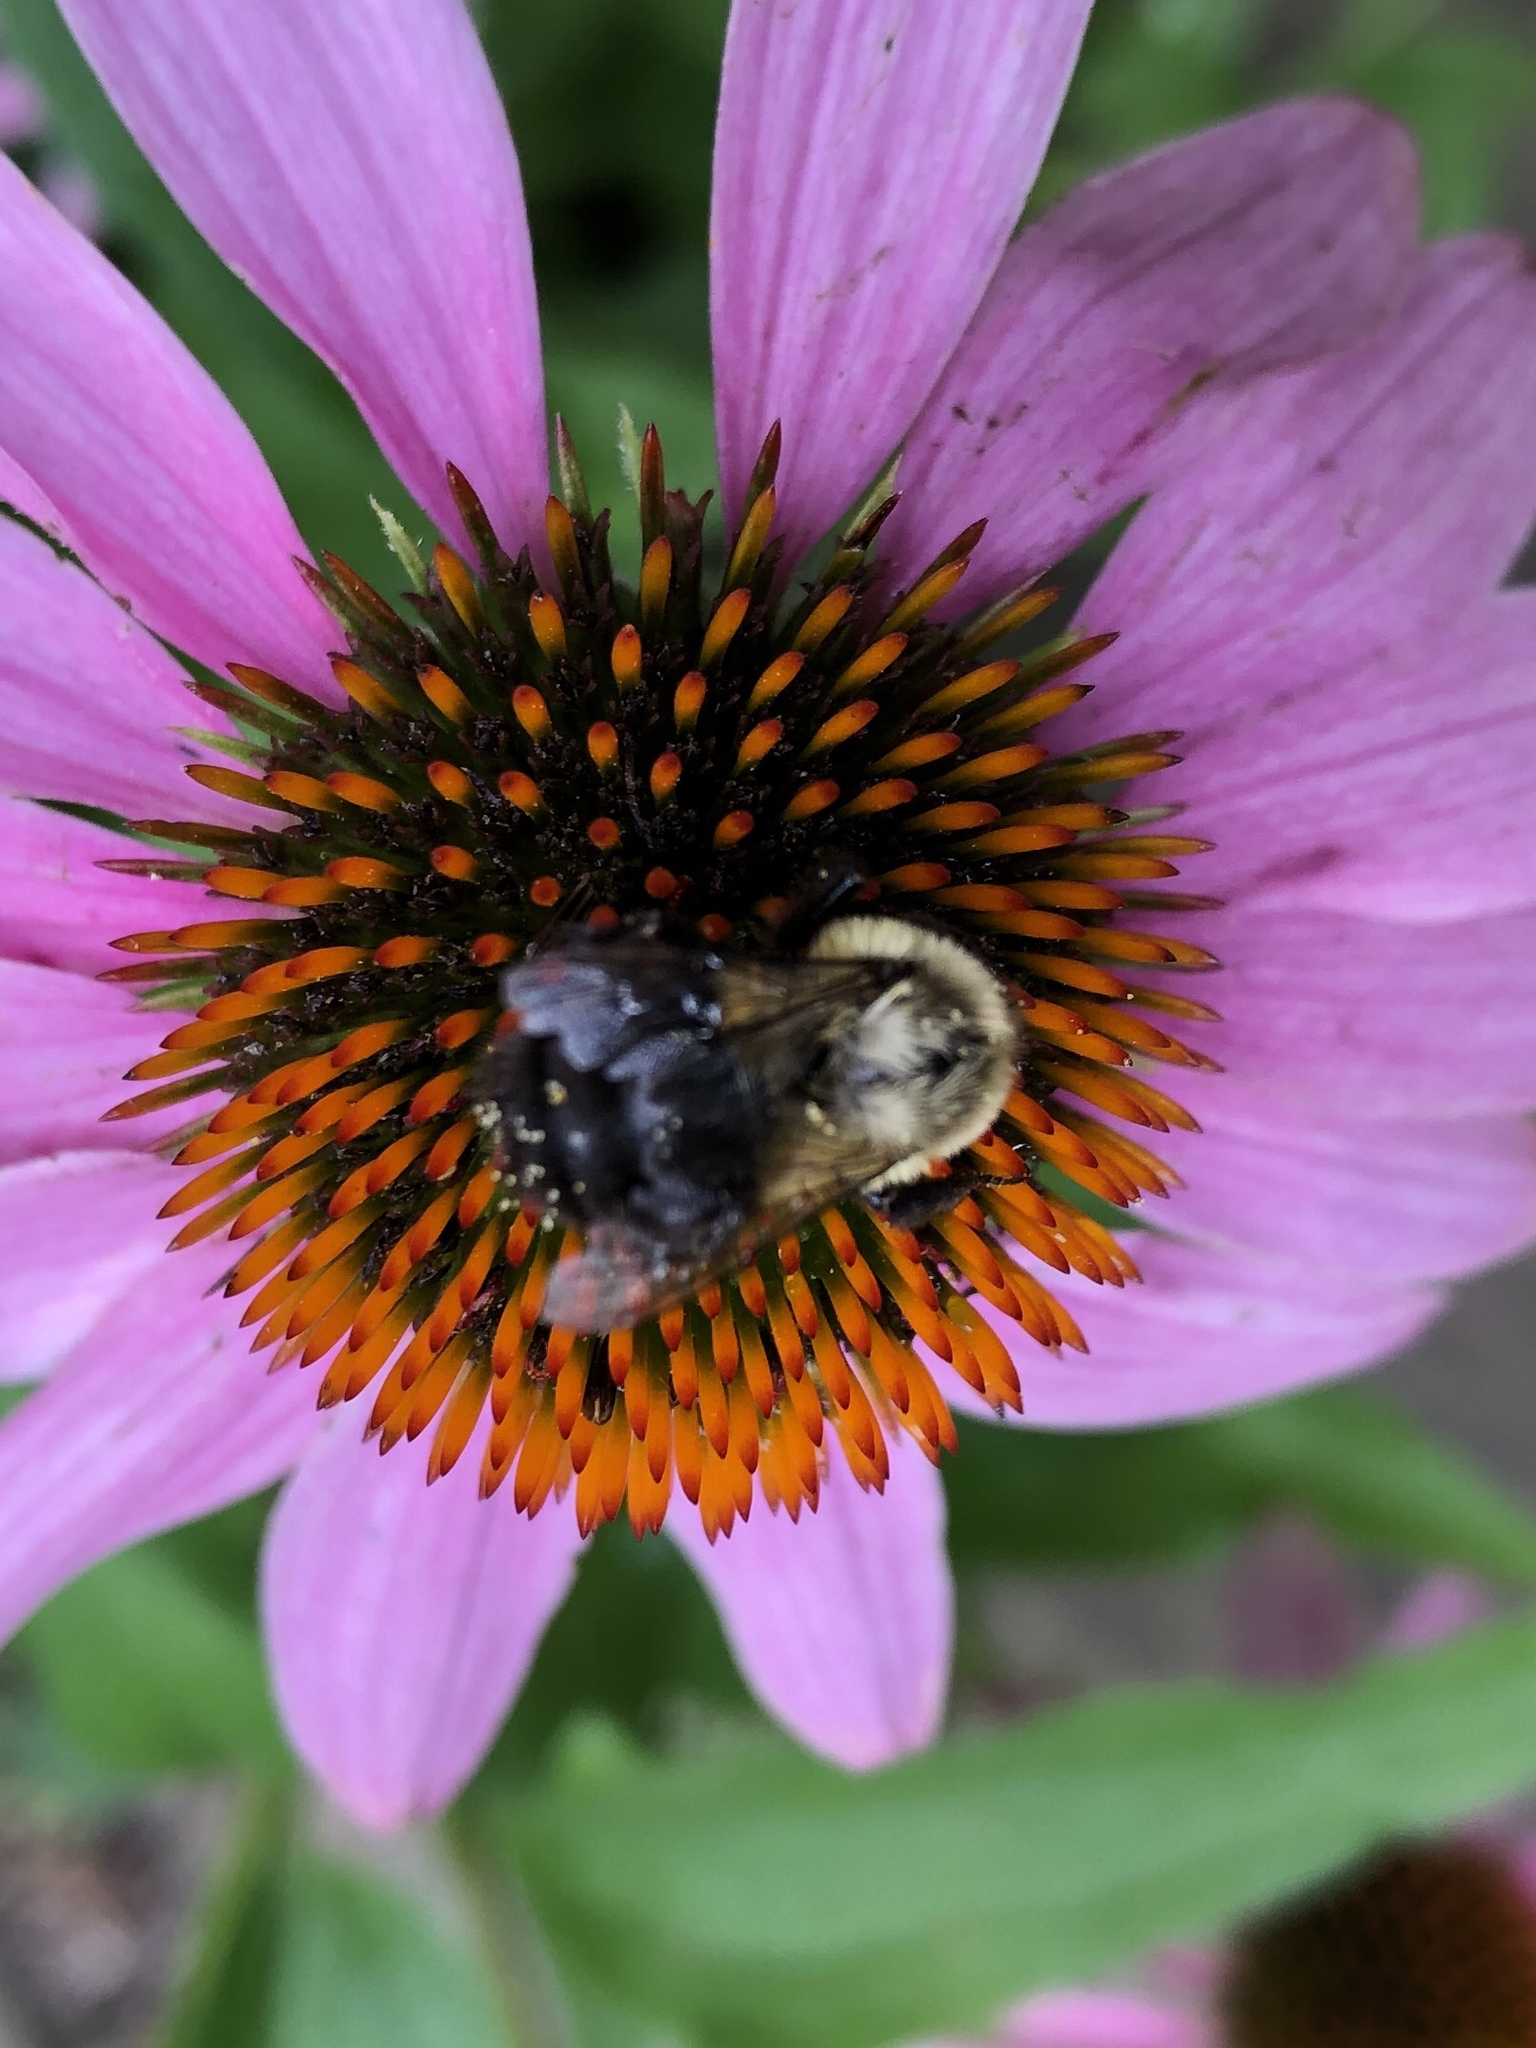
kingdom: Animalia
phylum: Arthropoda
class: Insecta
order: Hymenoptera
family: Apidae
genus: Bombus
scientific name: Bombus impatiens
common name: Common eastern bumble bee
